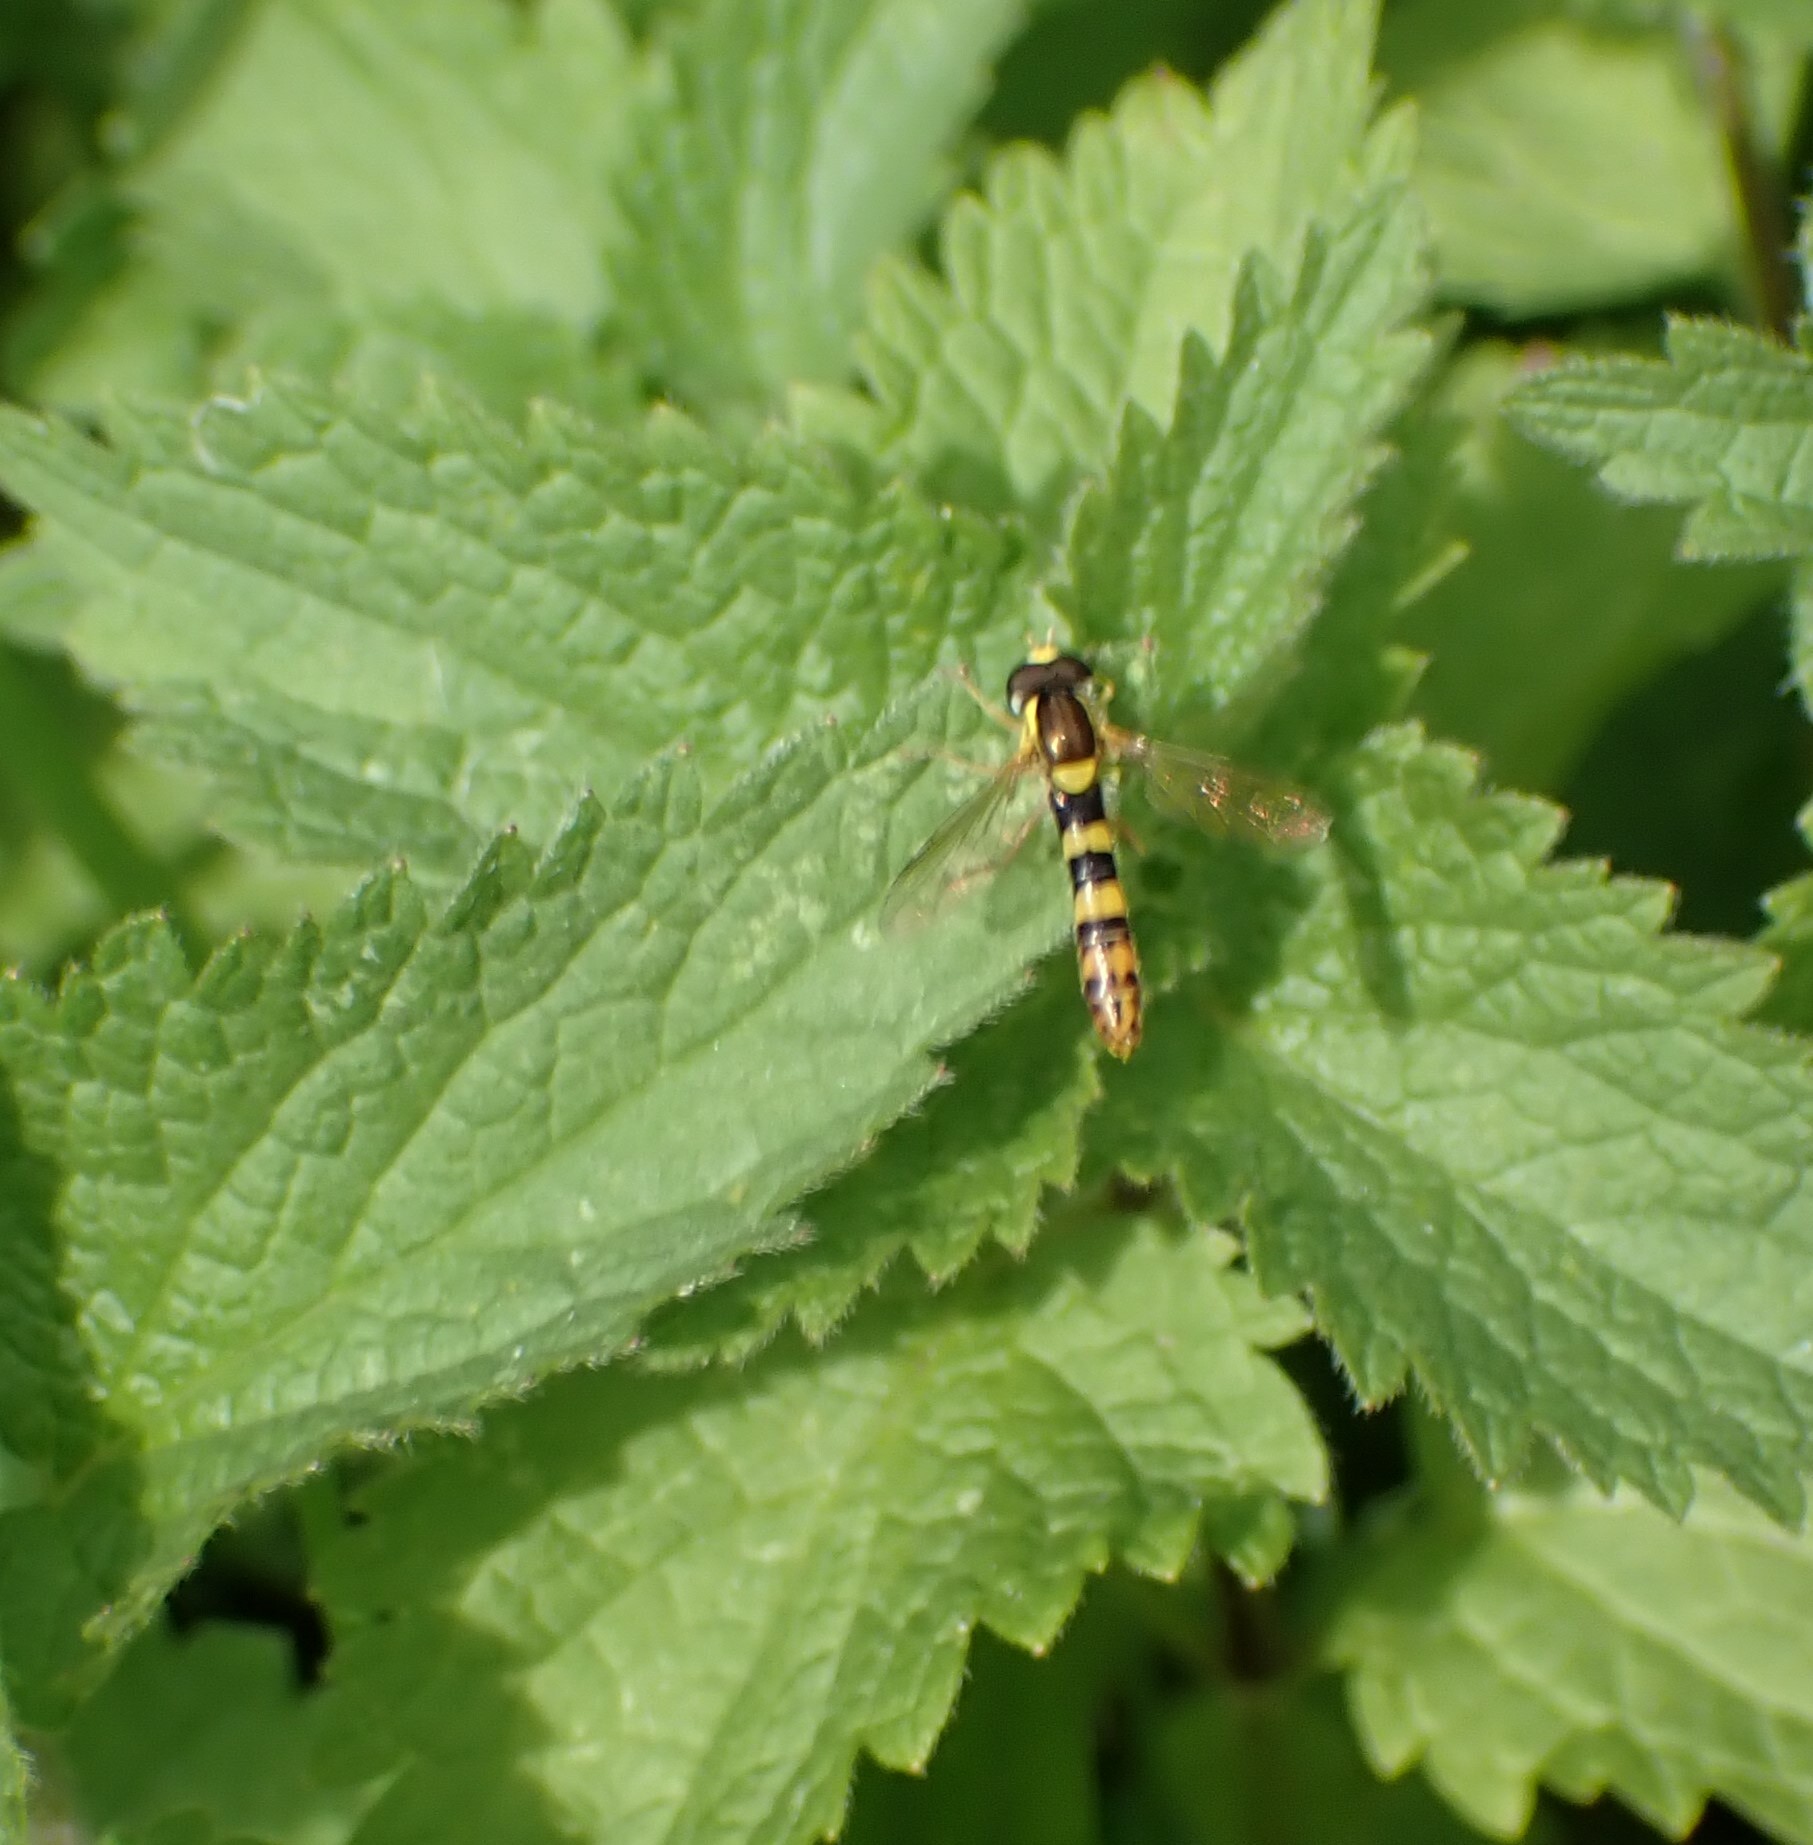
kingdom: Animalia
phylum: Arthropoda
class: Insecta
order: Diptera
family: Syrphidae
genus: Sphaerophoria
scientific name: Sphaerophoria scripta
